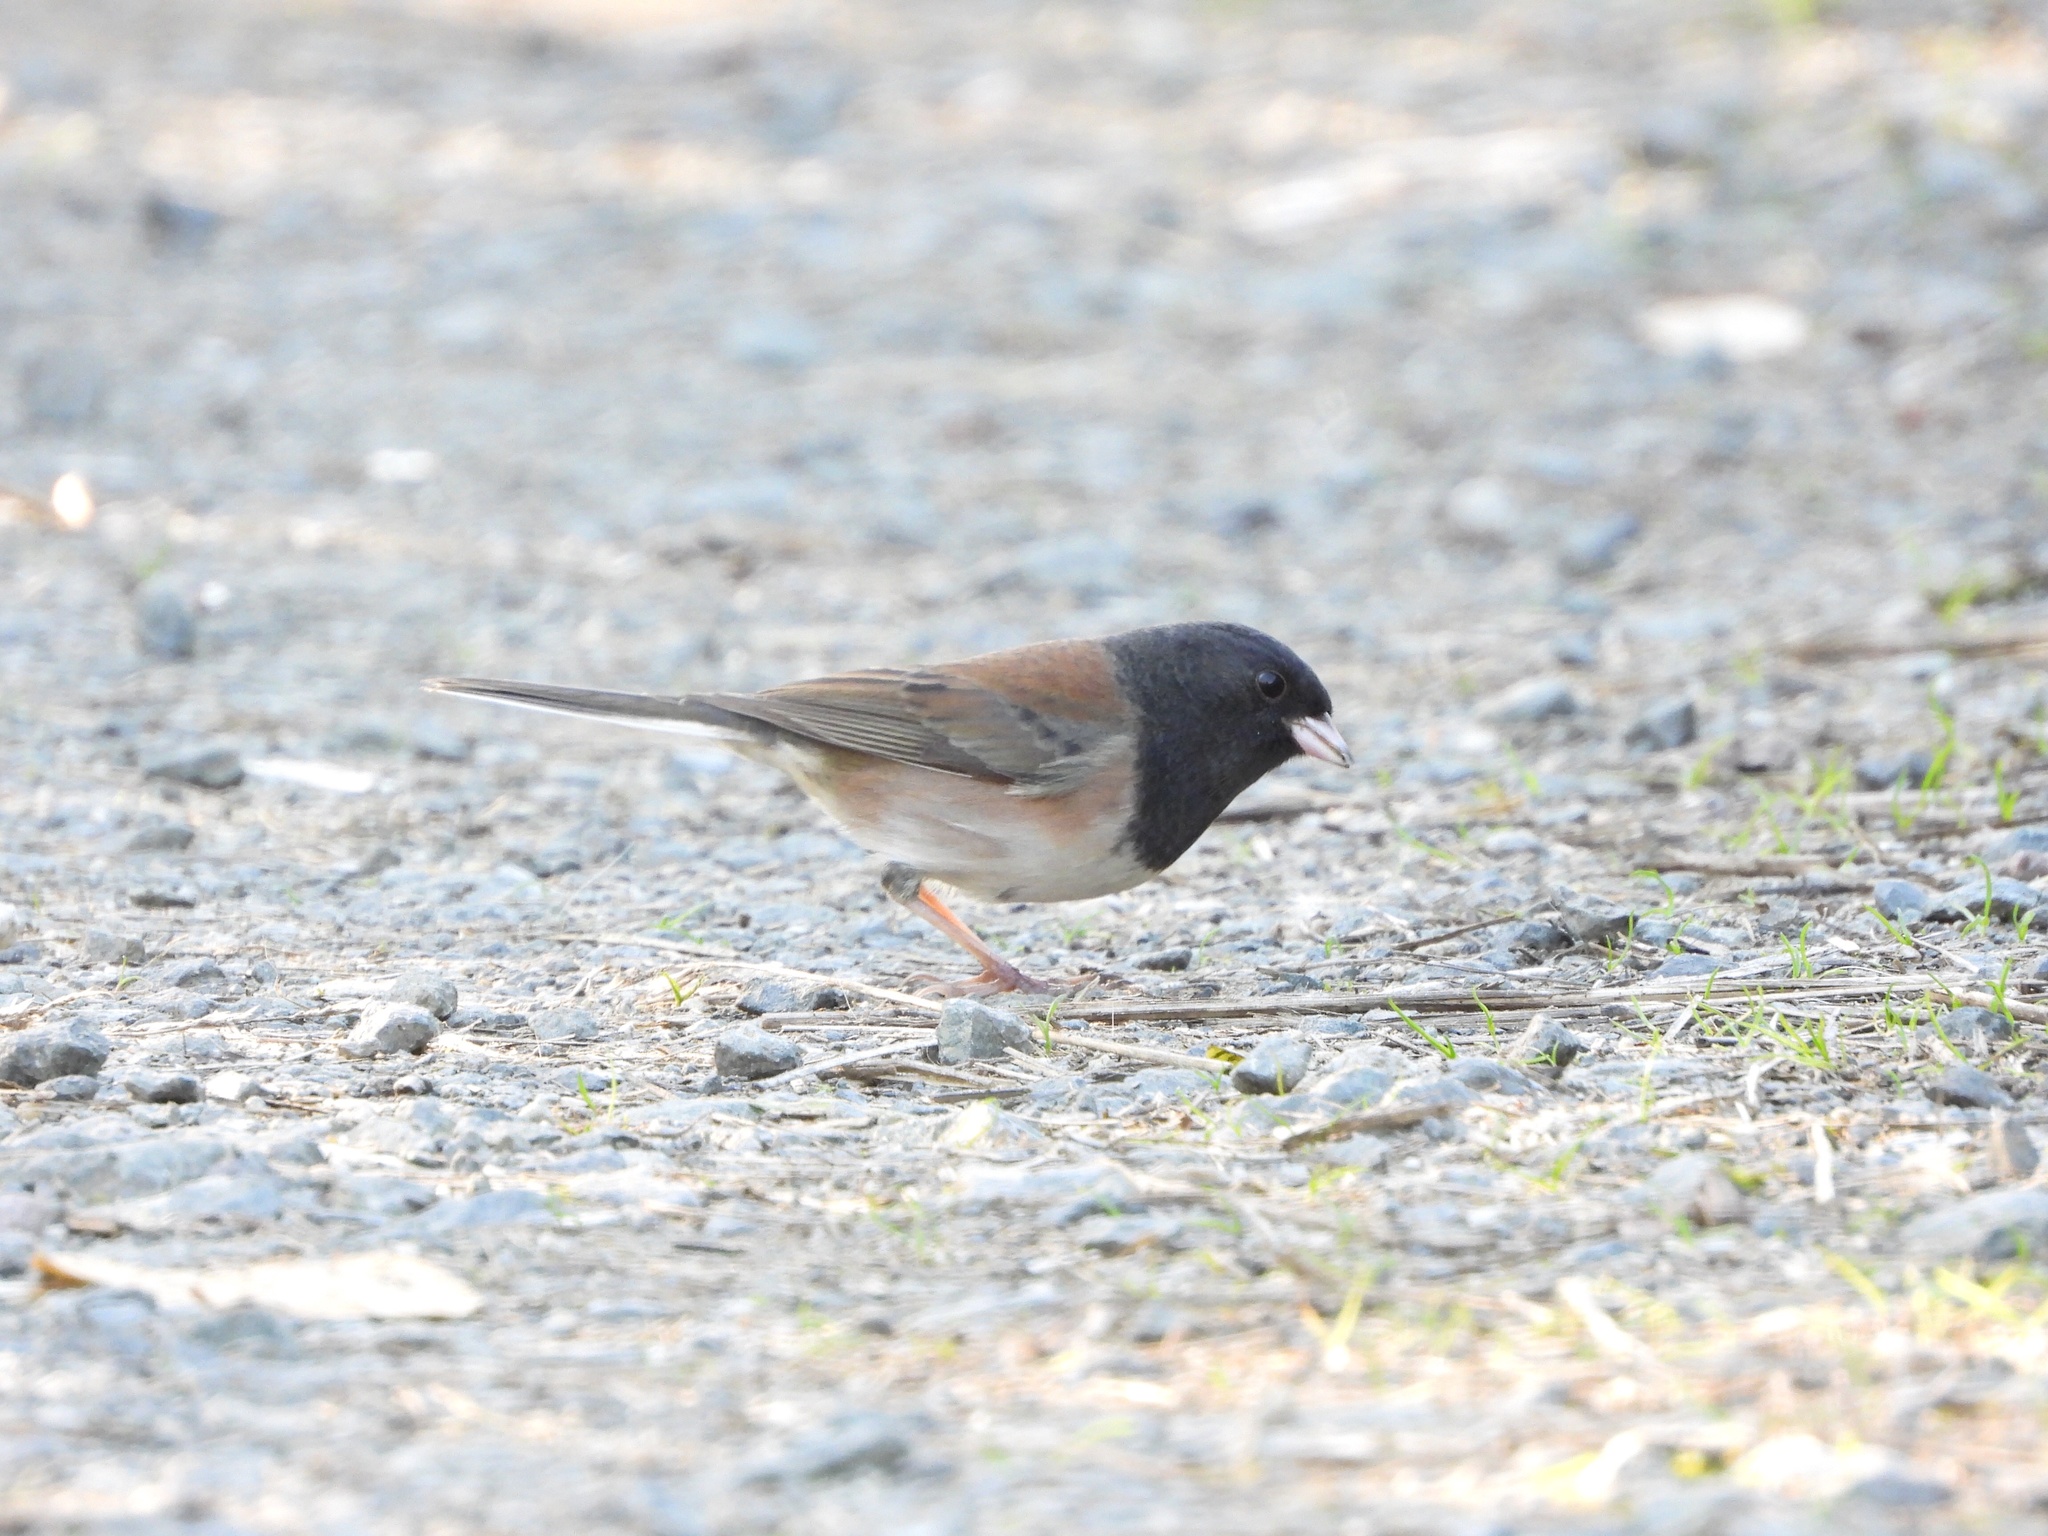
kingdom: Animalia
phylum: Chordata
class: Aves
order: Passeriformes
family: Passerellidae
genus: Junco
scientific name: Junco hyemalis
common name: Dark-eyed junco
